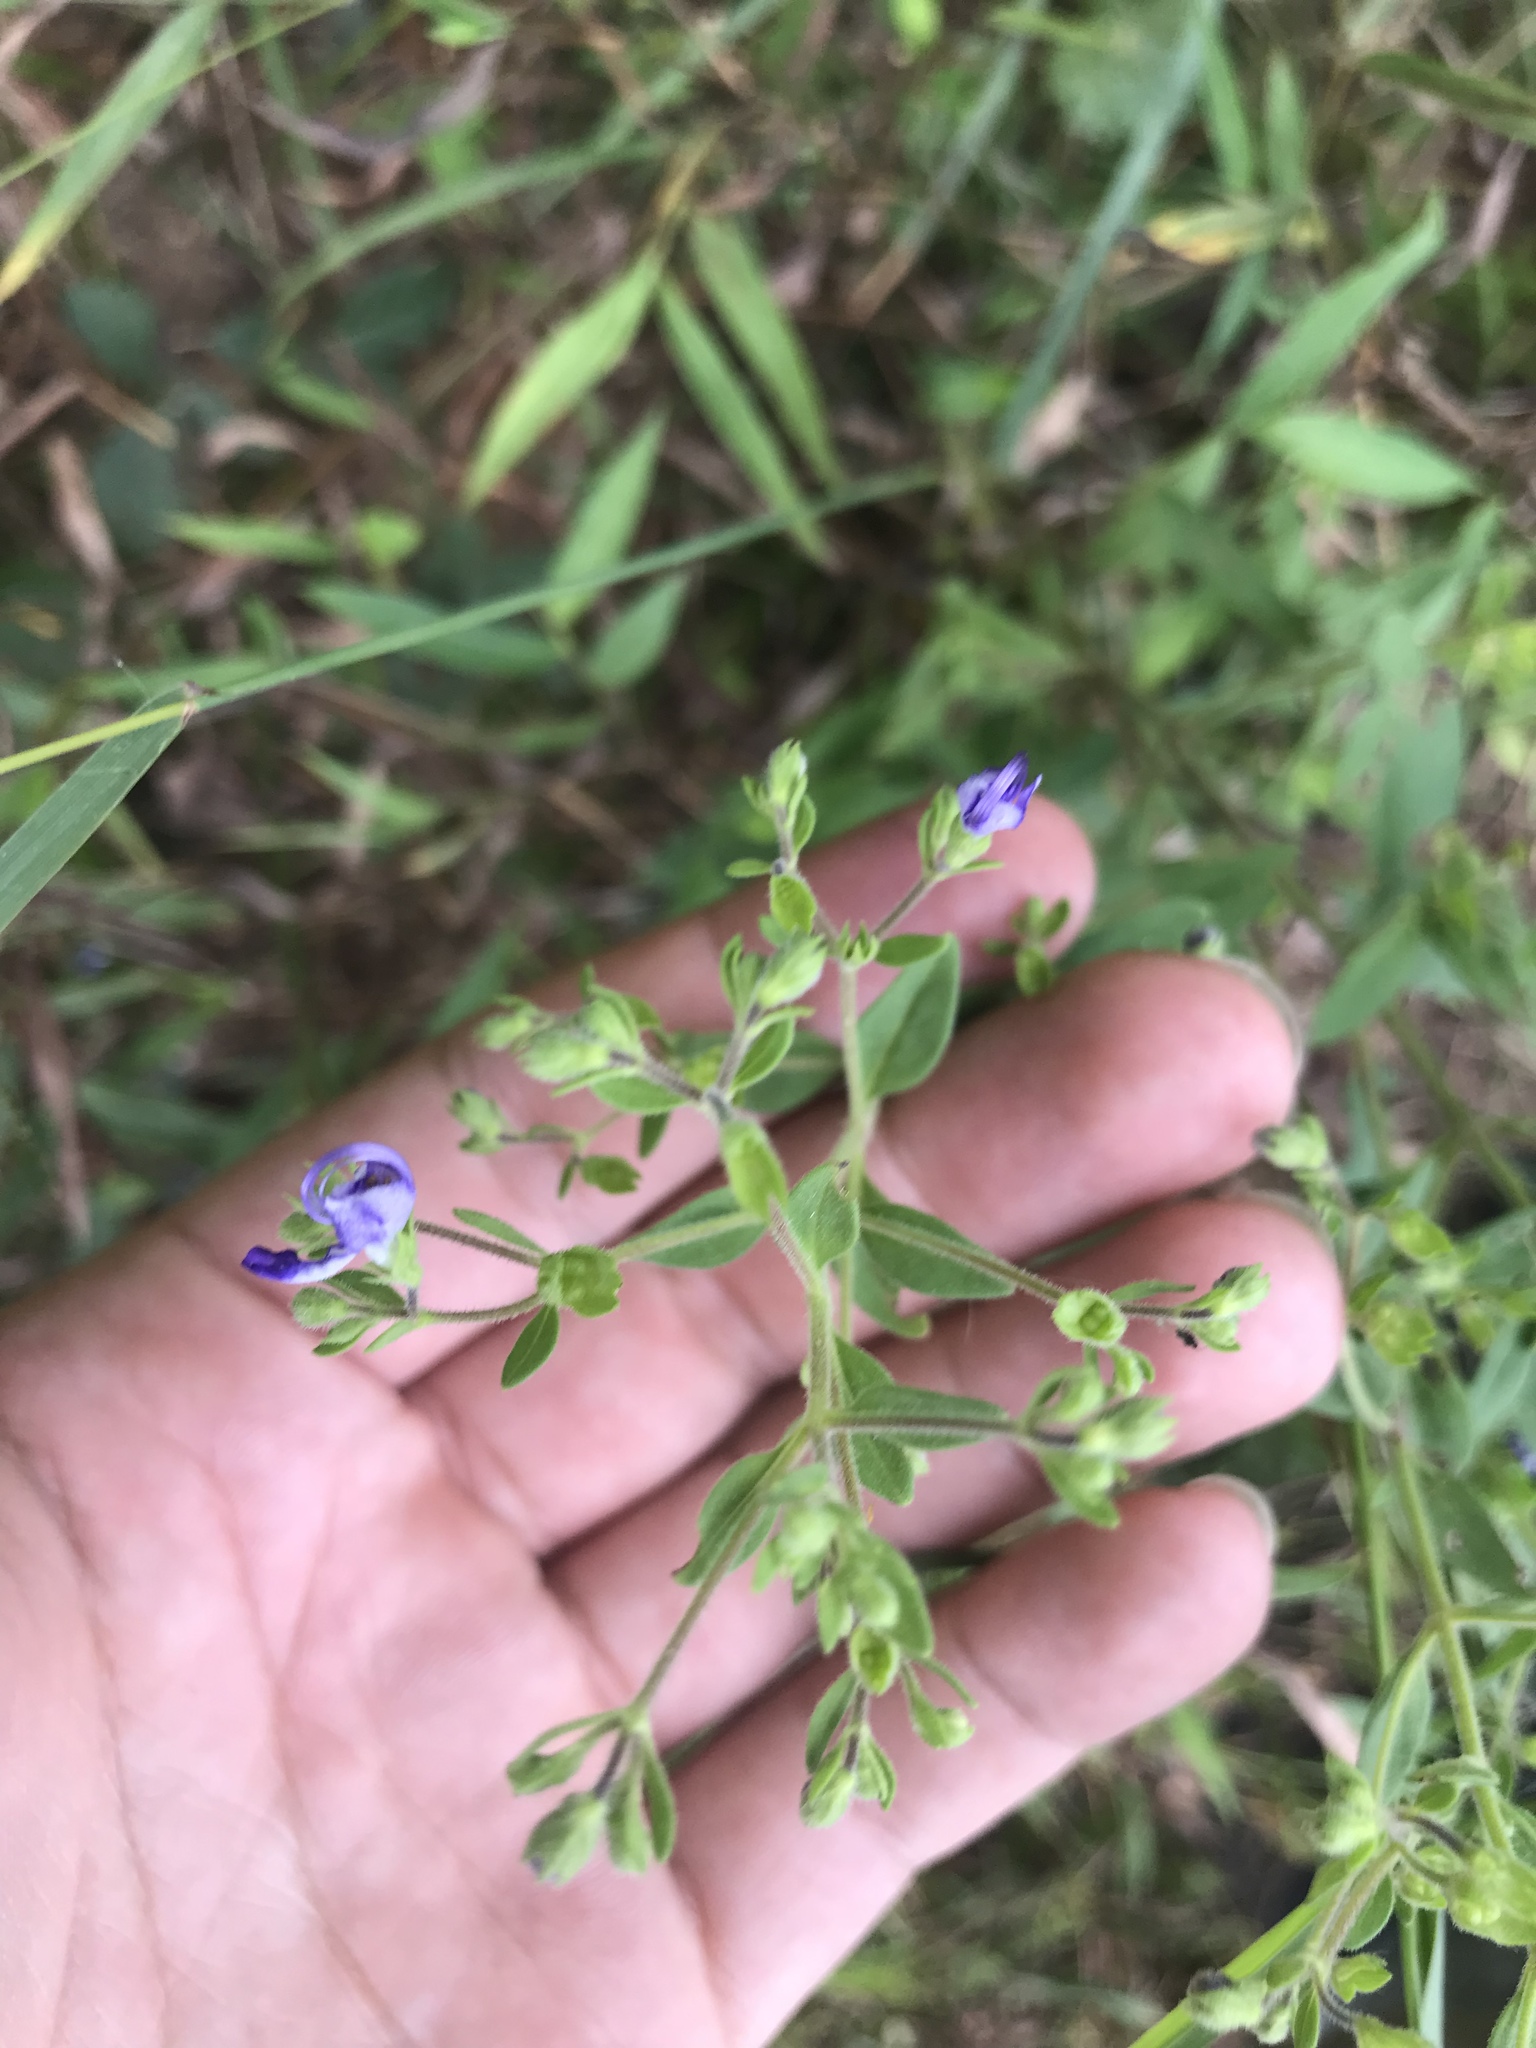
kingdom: Plantae
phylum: Tracheophyta
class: Magnoliopsida
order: Lamiales
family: Lamiaceae
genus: Trichostema
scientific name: Trichostema dichotomum
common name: Bastard pennyroyal
